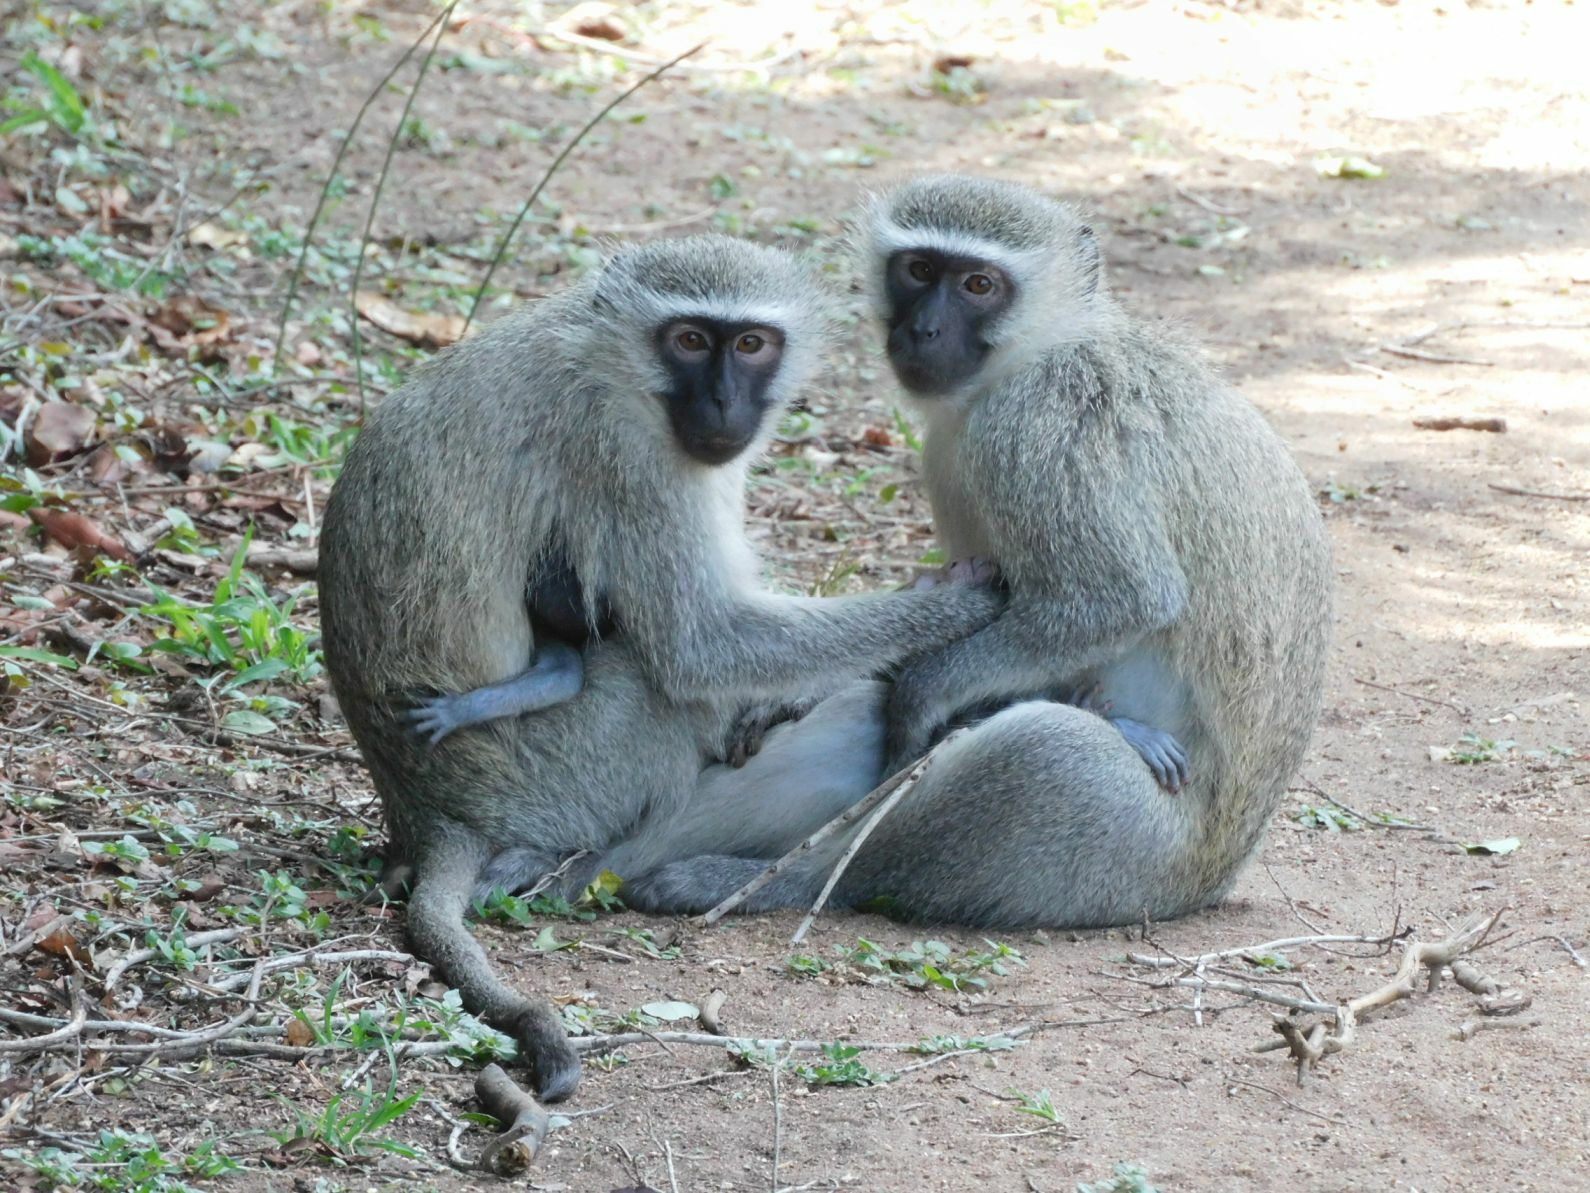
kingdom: Animalia
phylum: Chordata
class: Mammalia
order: Primates
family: Cercopithecidae
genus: Chlorocebus
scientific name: Chlorocebus pygerythrus
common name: Vervet monkey
